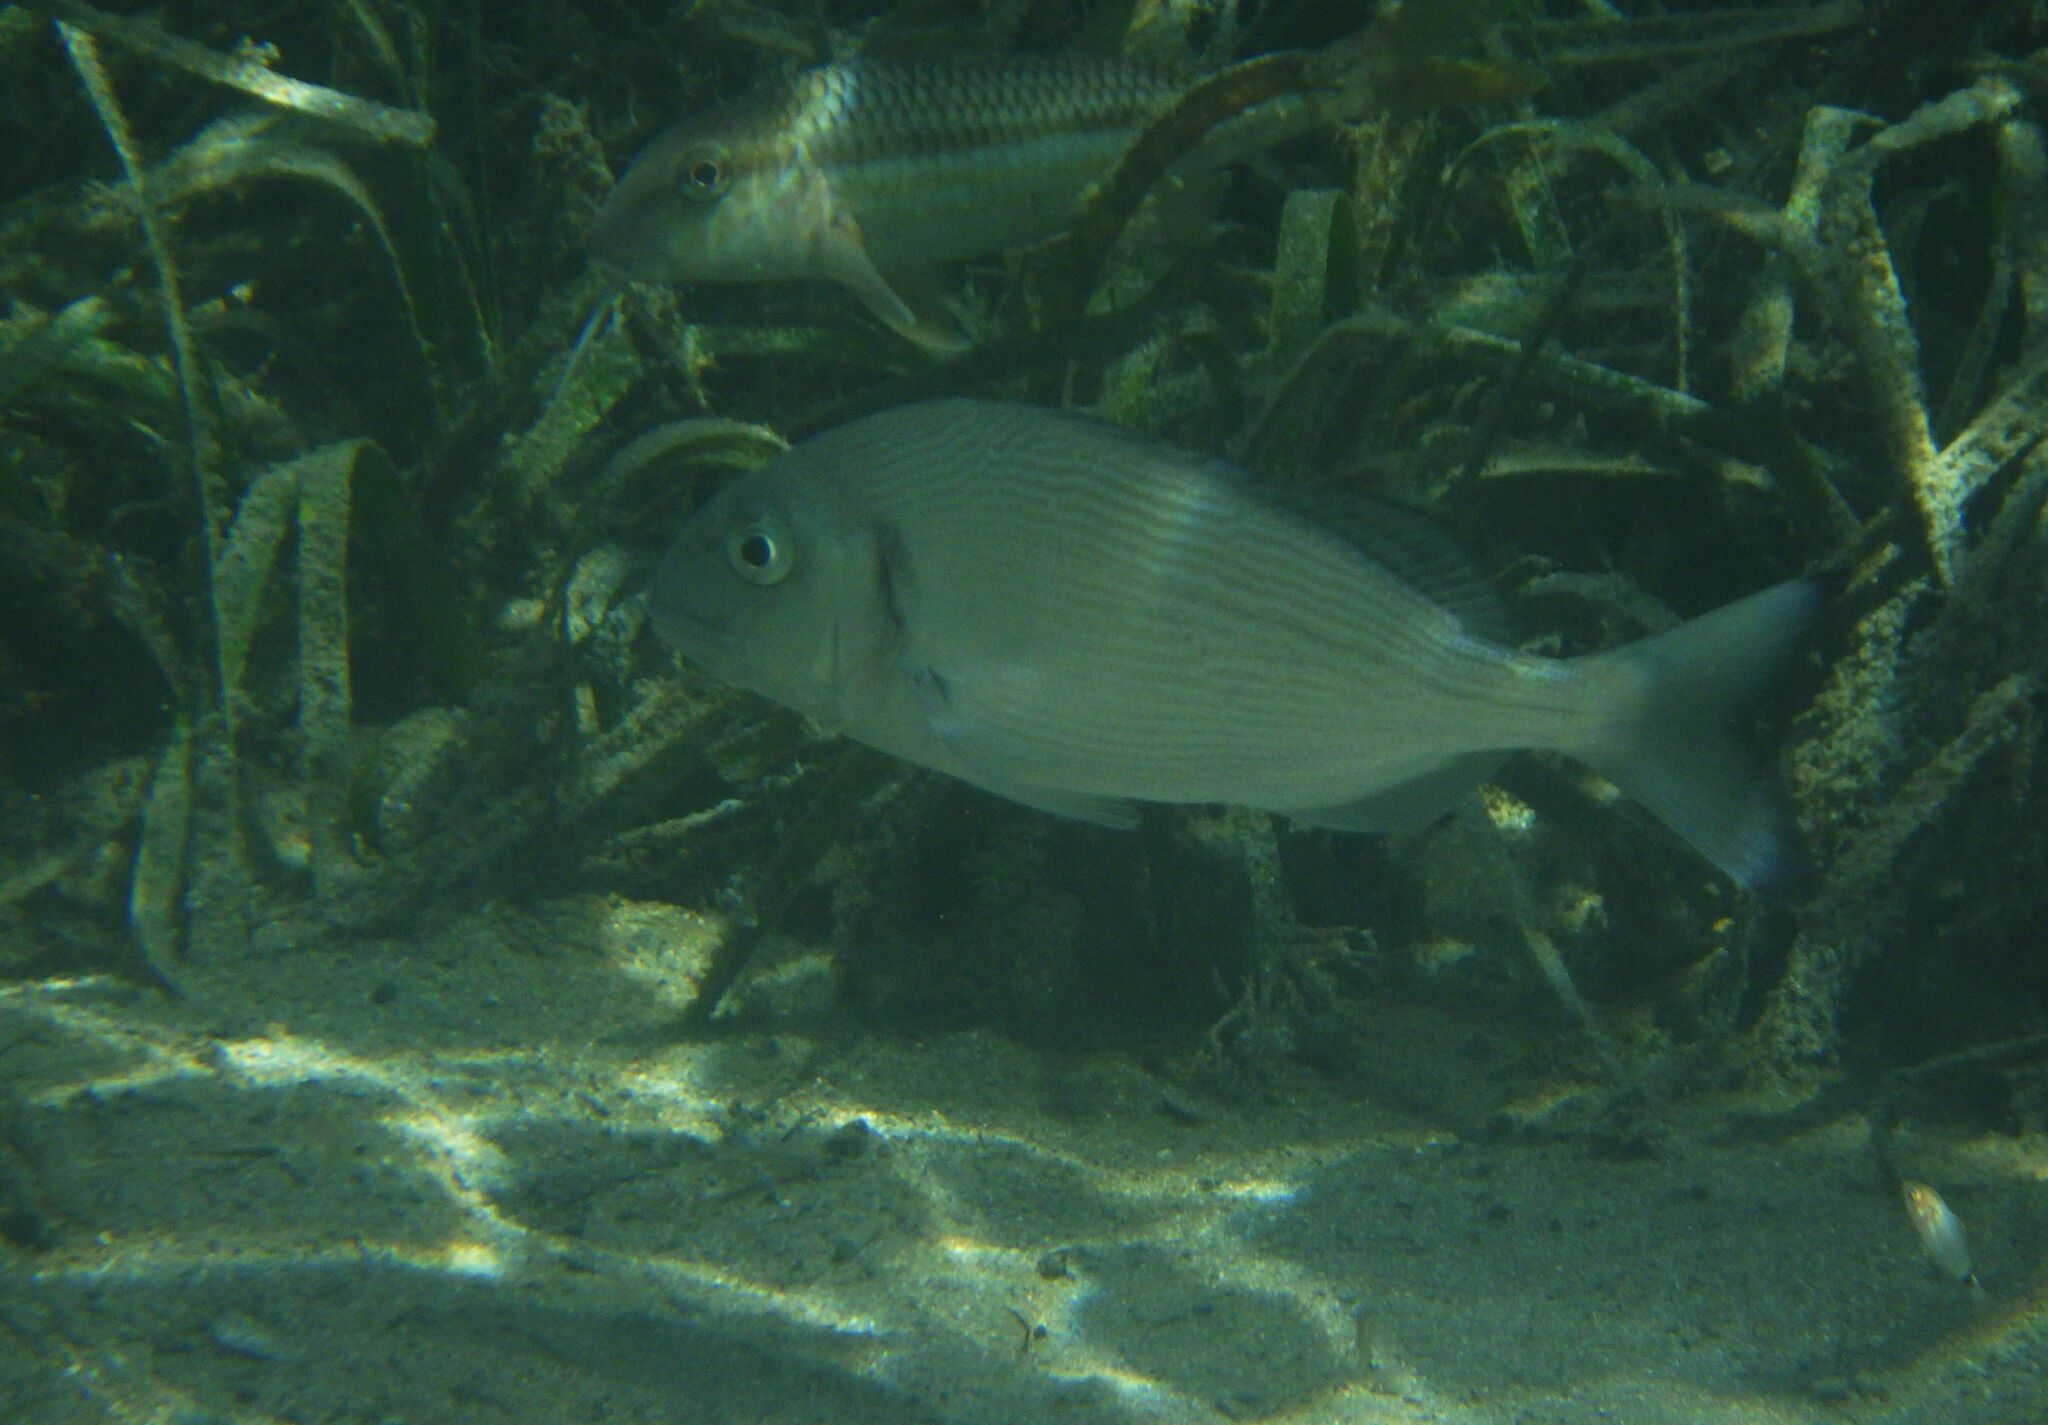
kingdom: Animalia
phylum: Chordata
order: Perciformes
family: Sparidae
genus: Sparus
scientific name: Sparus aurata
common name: Gilthead
